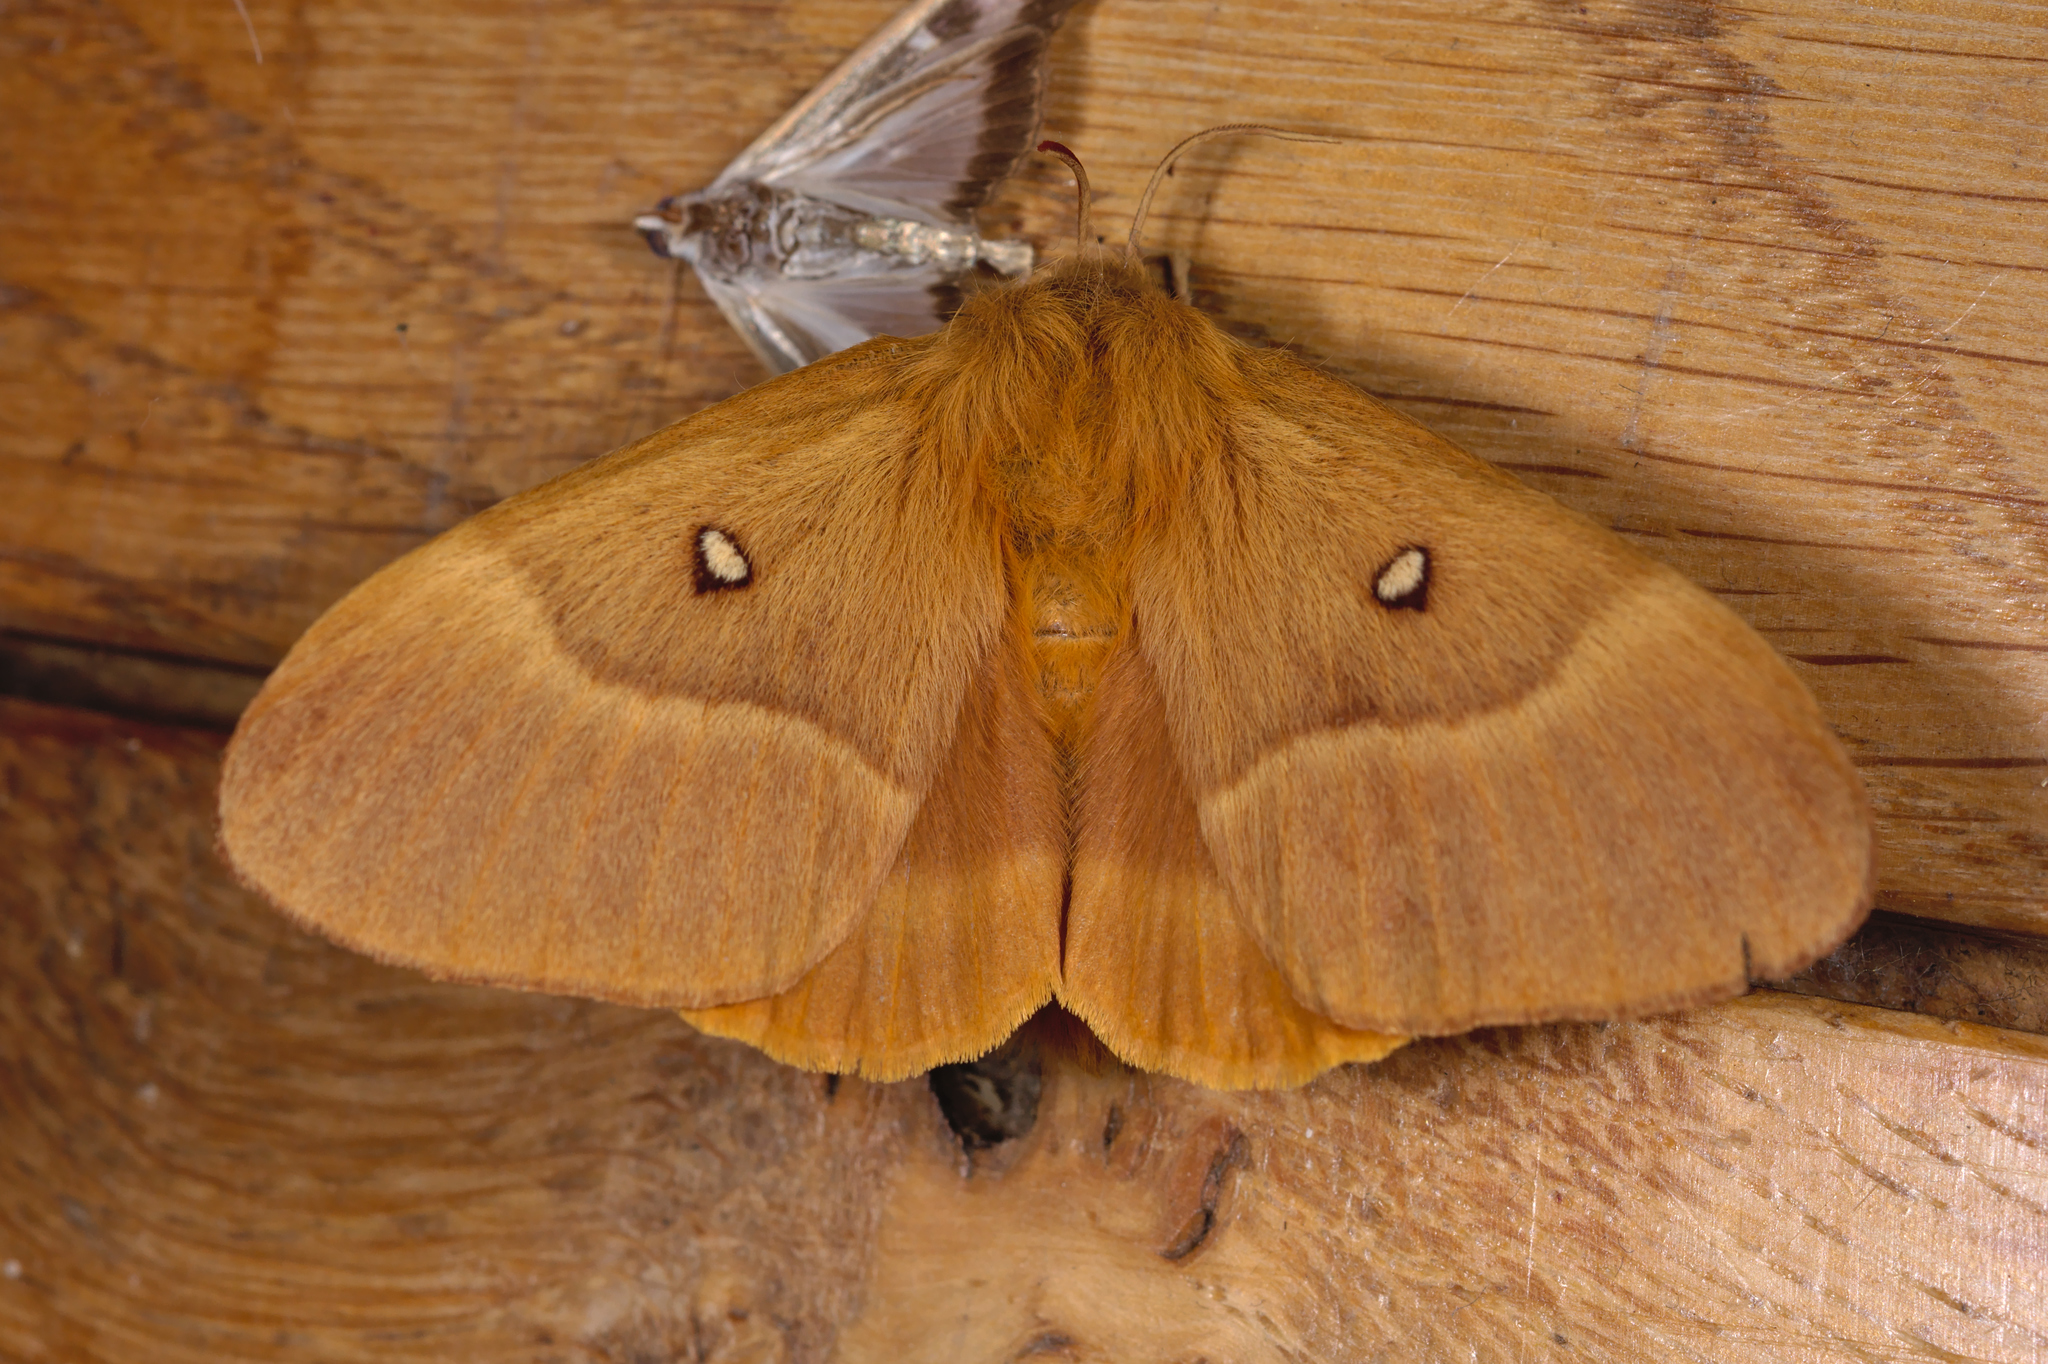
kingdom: Animalia
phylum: Arthropoda
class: Insecta
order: Lepidoptera
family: Lasiocampidae
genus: Lasiocampa
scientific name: Lasiocampa quercus
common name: Oak eggar
